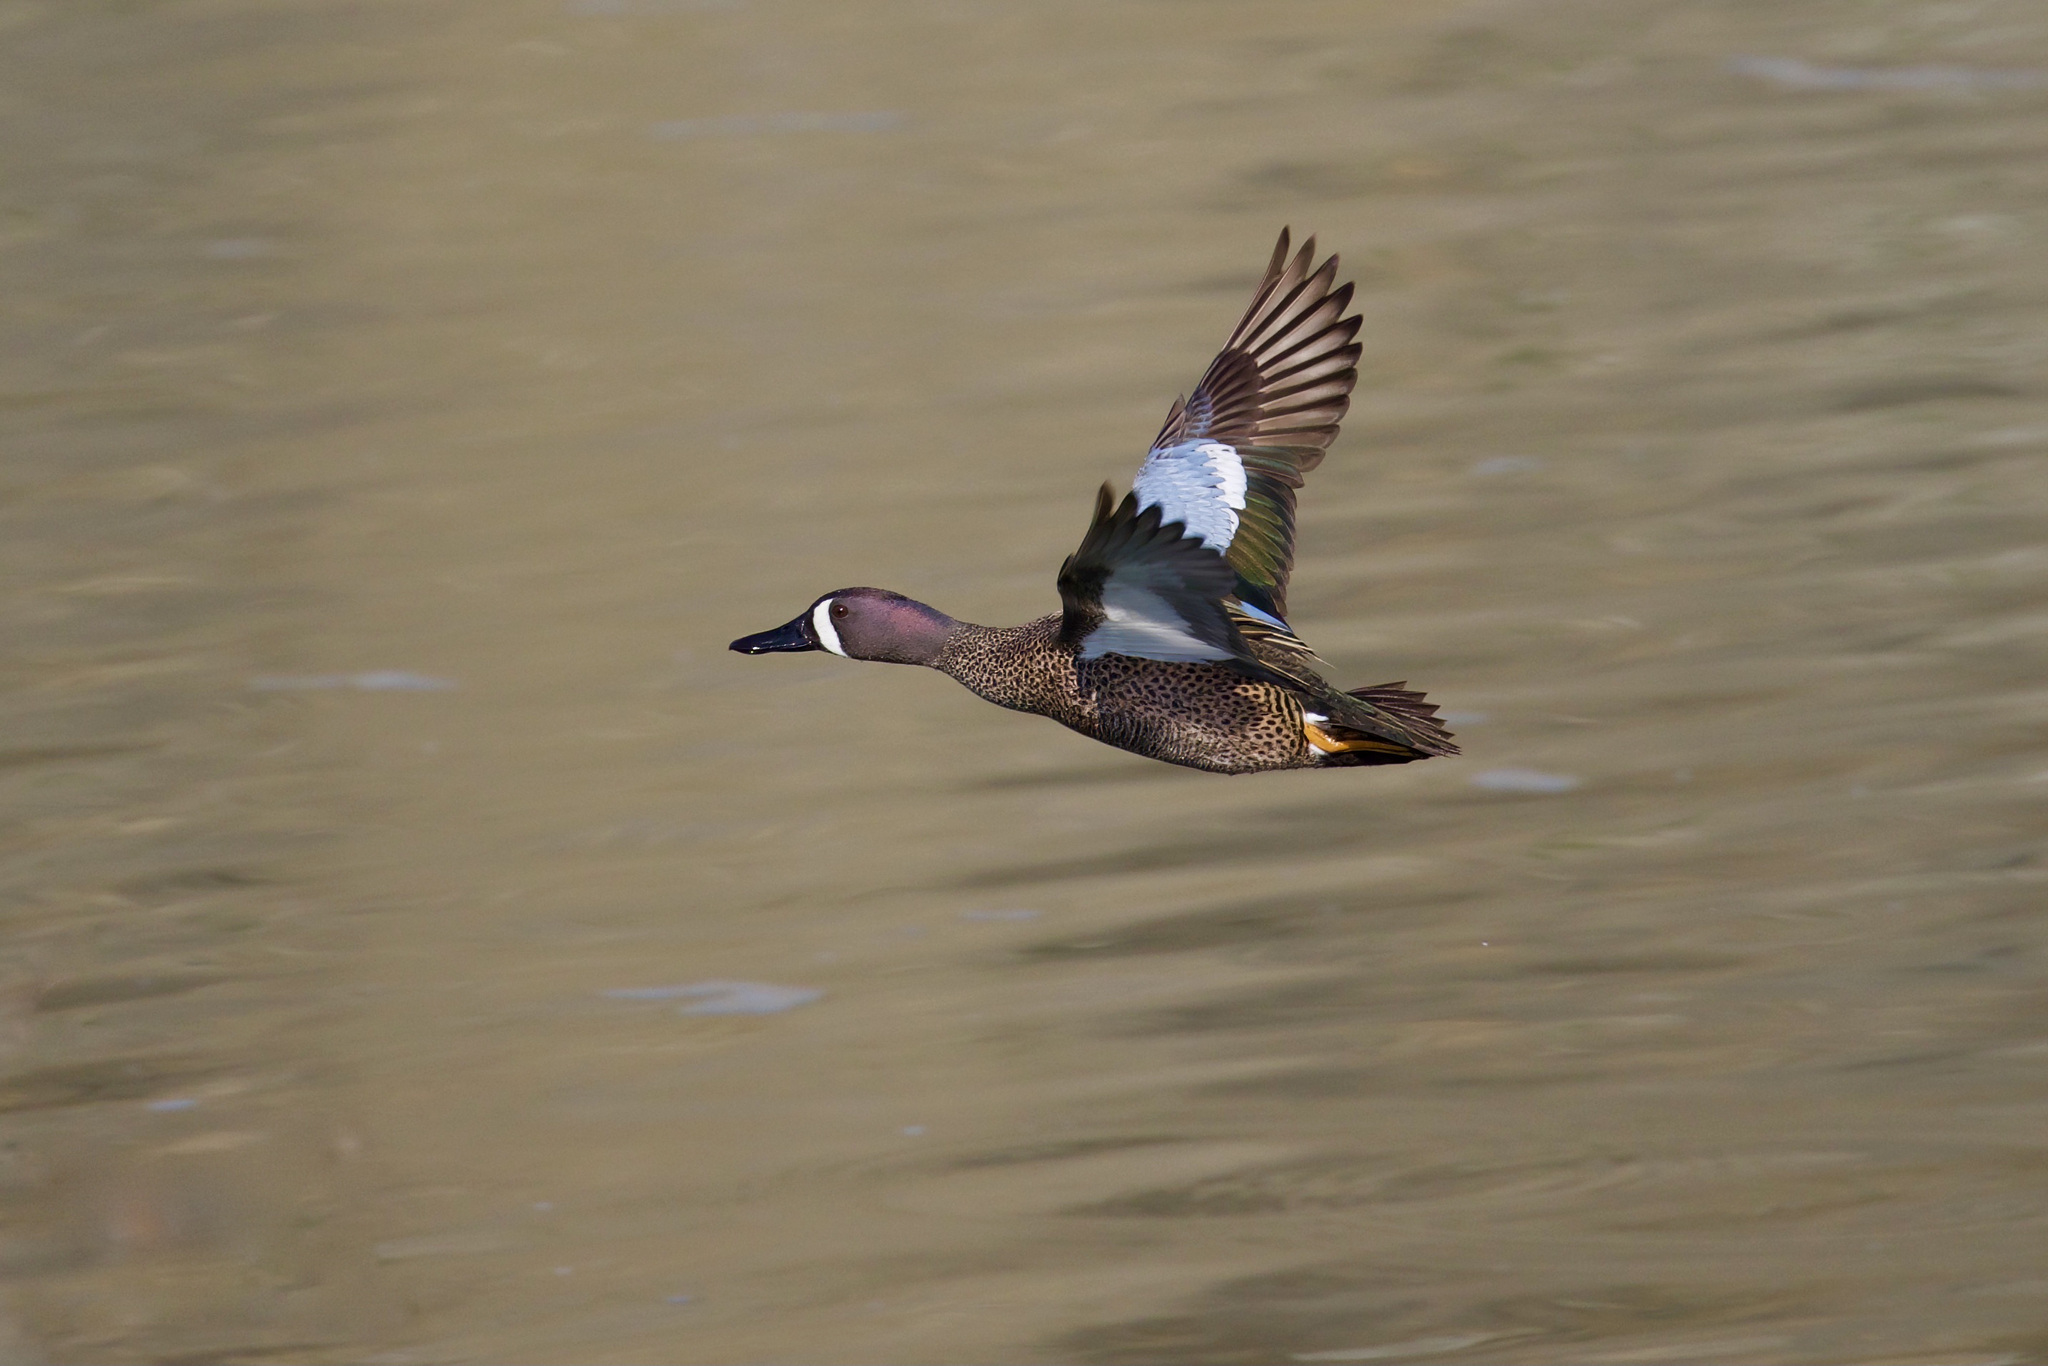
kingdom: Animalia
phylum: Chordata
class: Aves
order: Anseriformes
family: Anatidae
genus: Spatula
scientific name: Spatula discors
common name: Blue-winged teal
